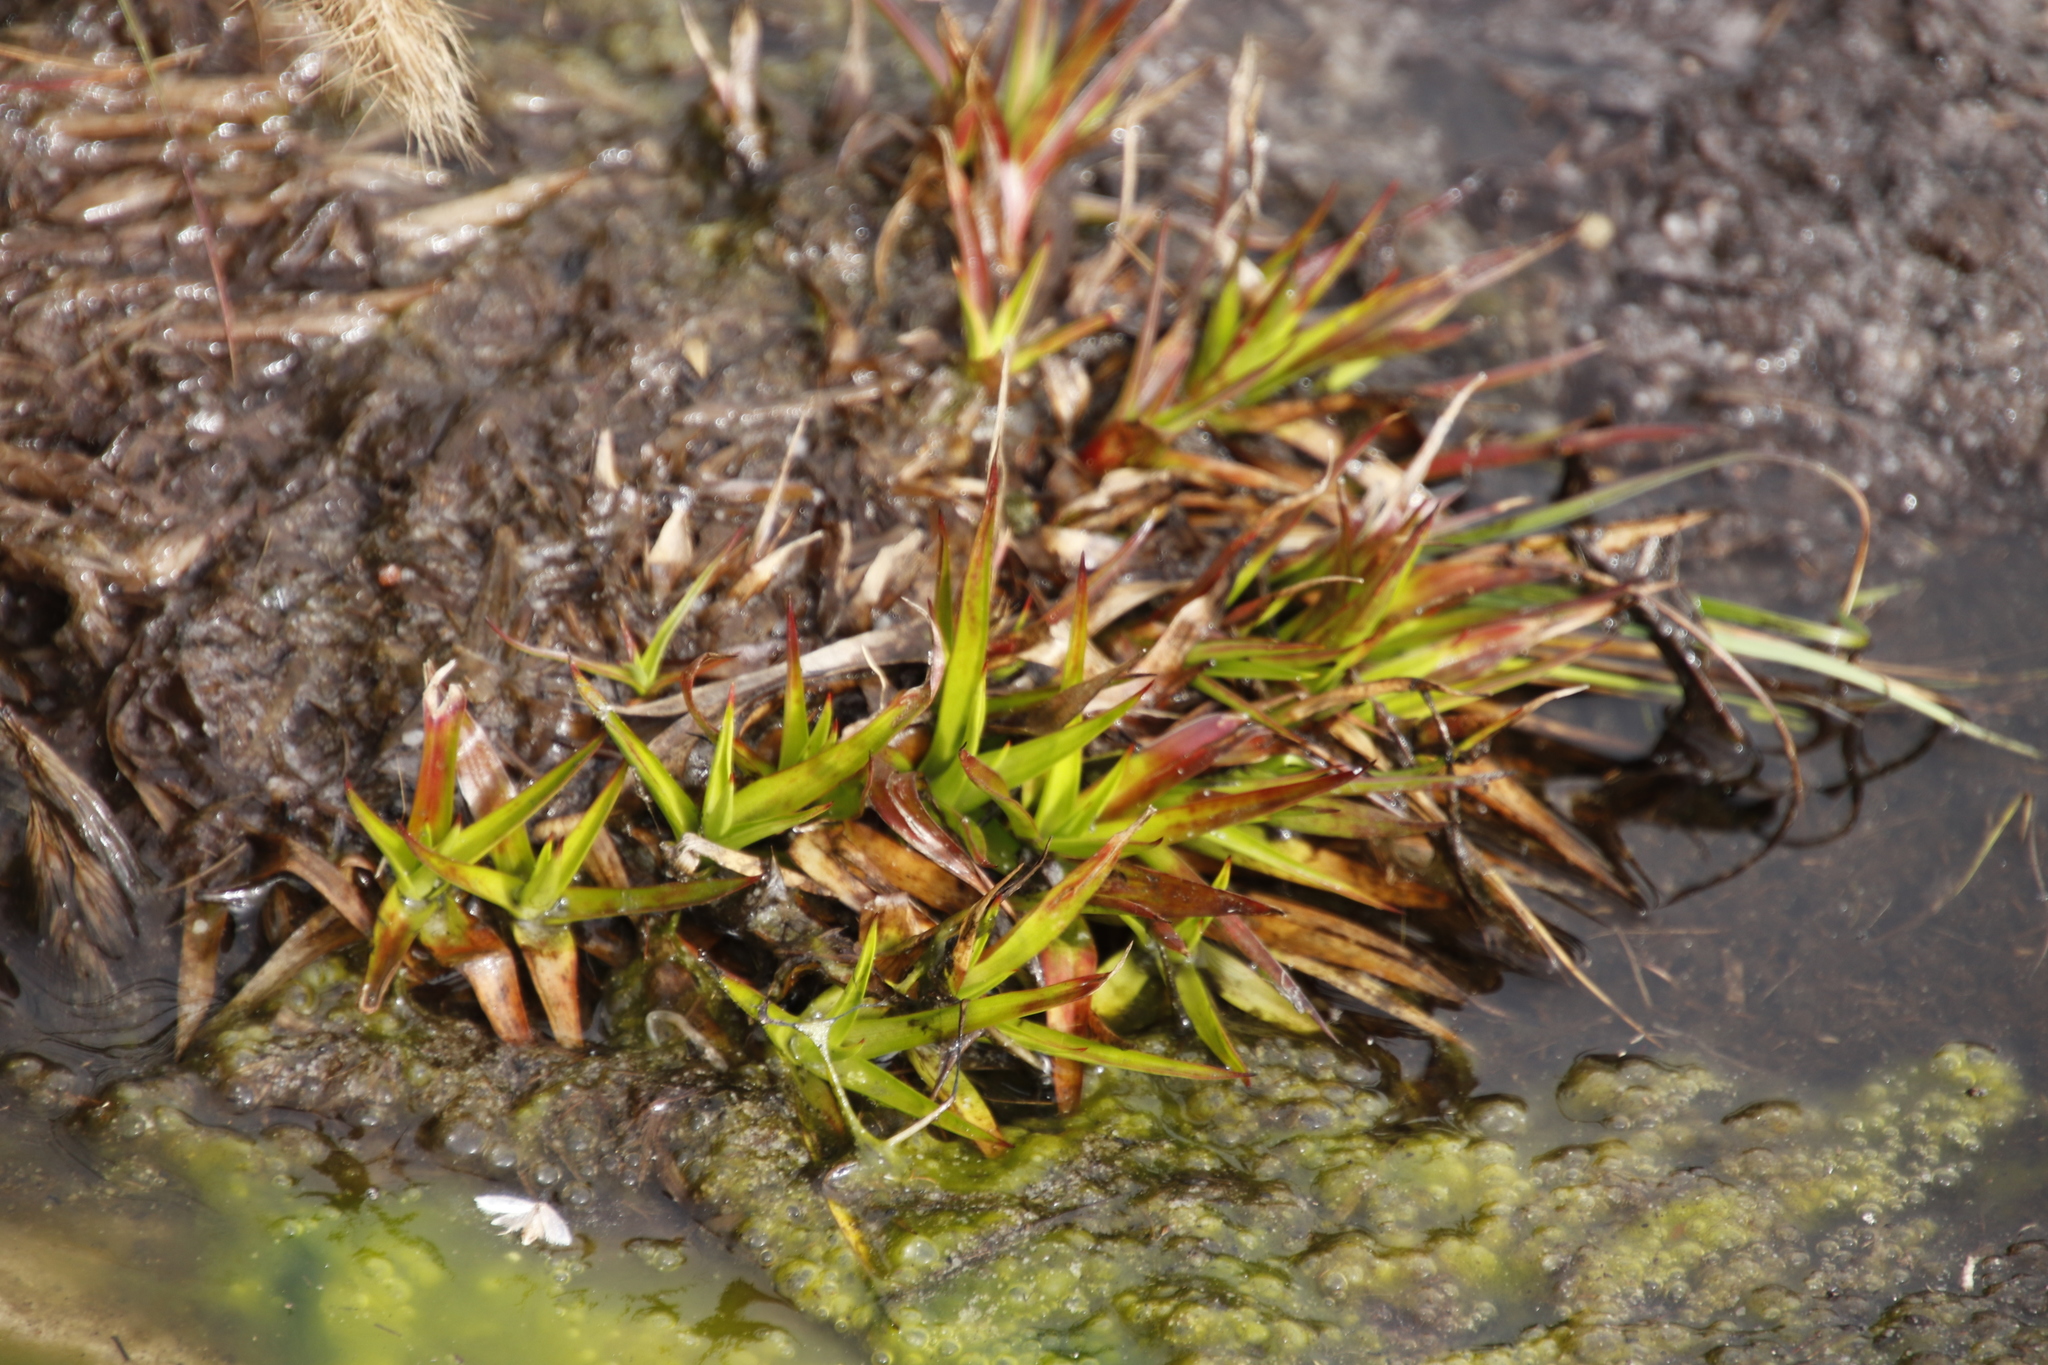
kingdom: Plantae
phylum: Tracheophyta
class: Liliopsida
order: Poales
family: Juncaceae
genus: Juncus
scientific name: Juncus lomatophyllus
